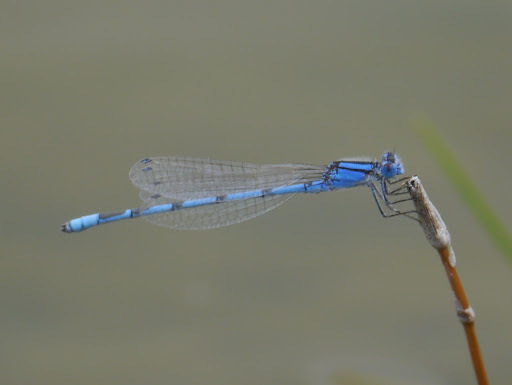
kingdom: Animalia
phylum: Arthropoda
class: Insecta
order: Odonata
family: Coenagrionidae
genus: Enallagma
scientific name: Enallagma civile
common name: Damselfly
